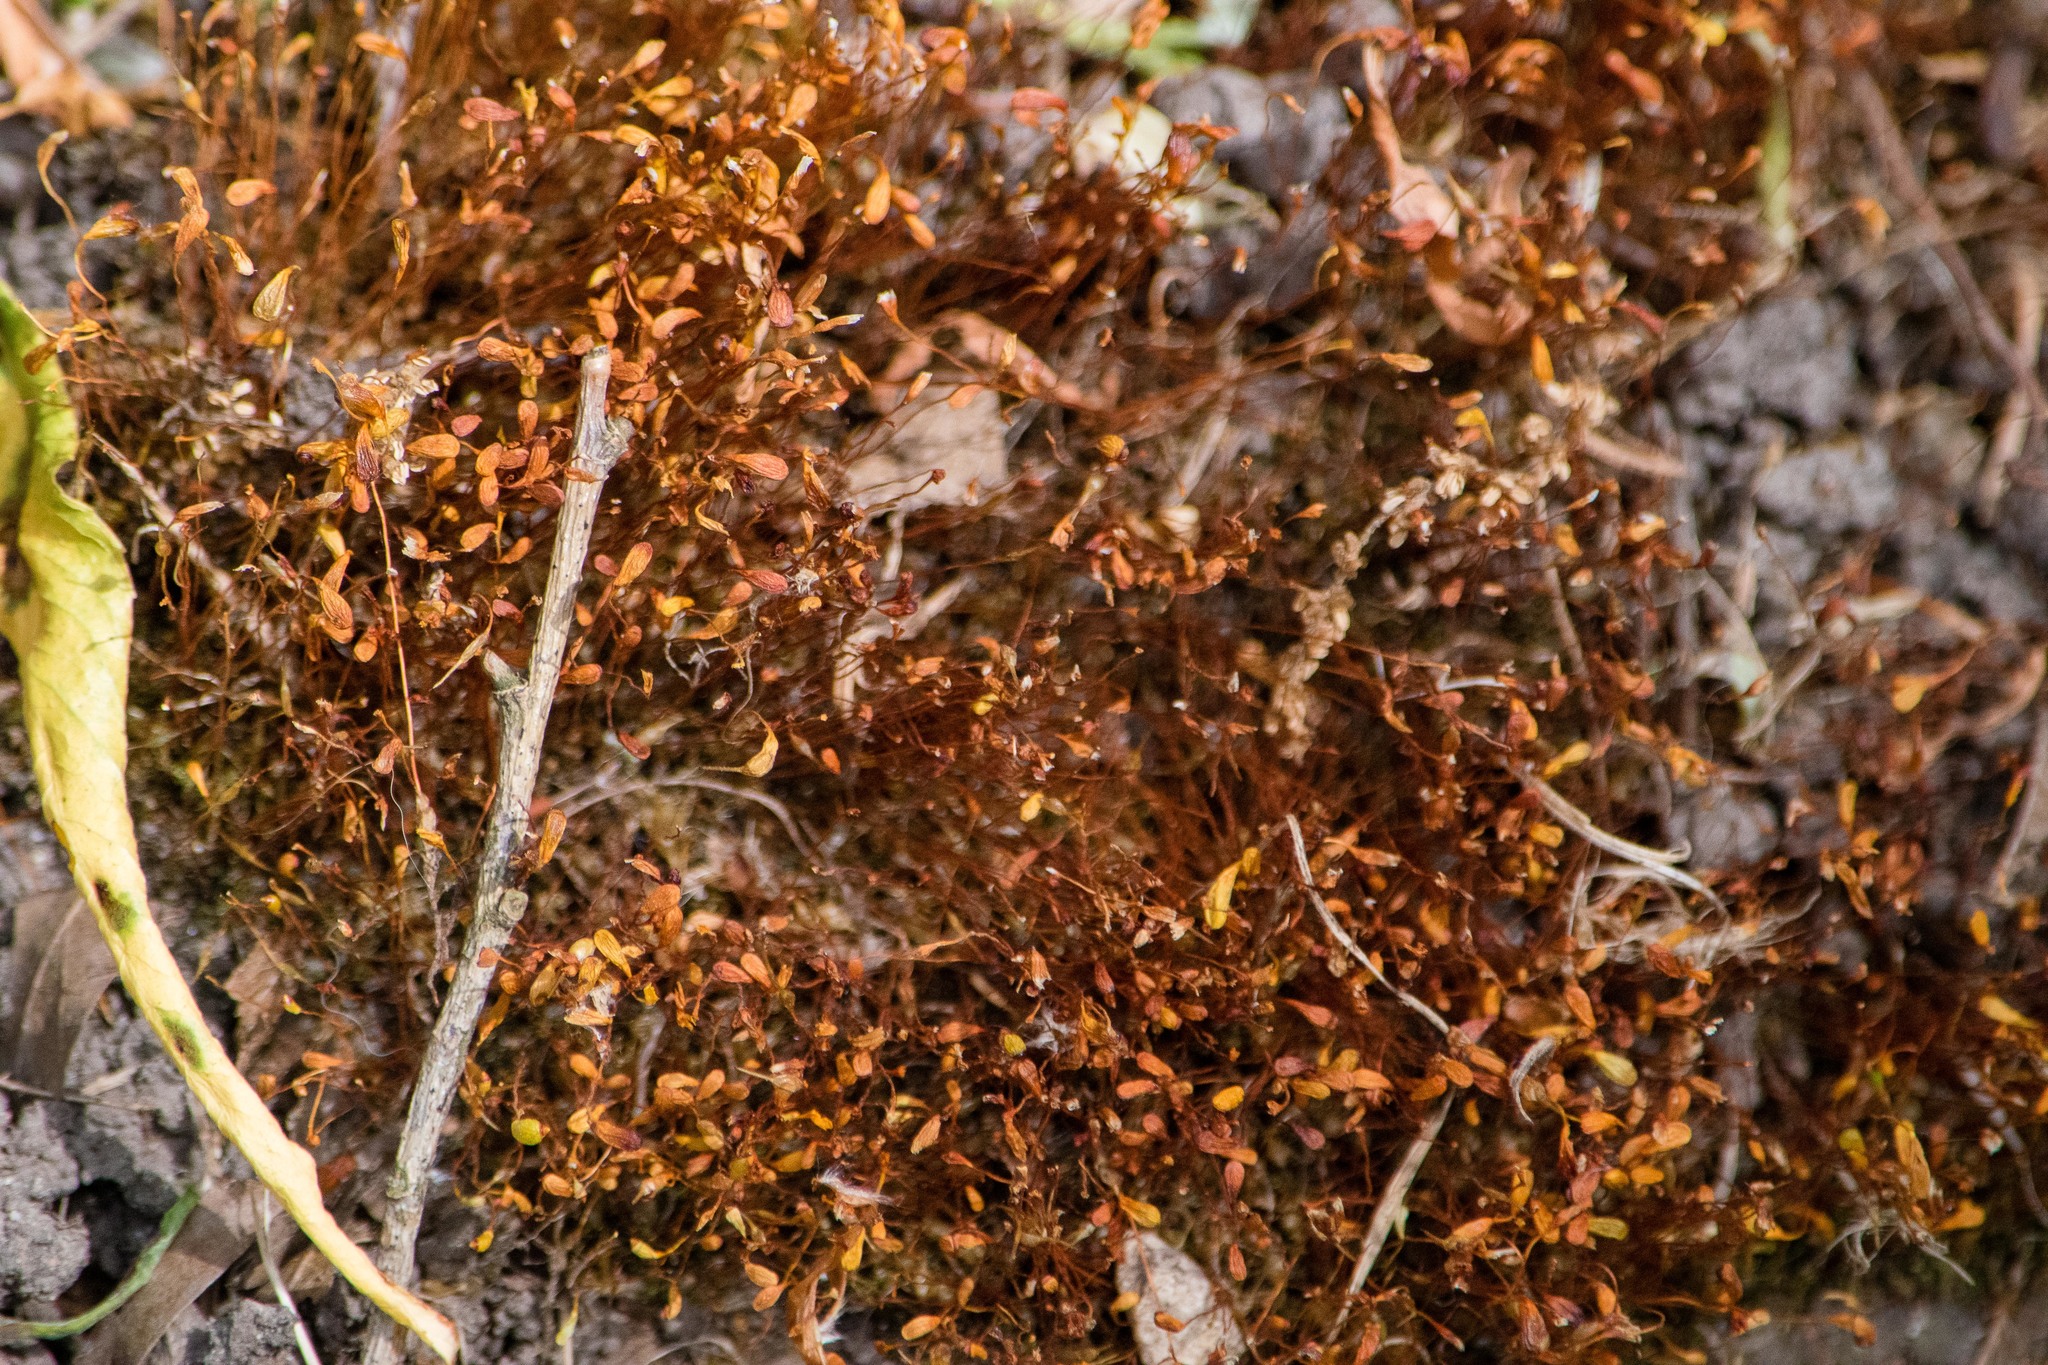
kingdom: Plantae
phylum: Bryophyta
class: Bryopsida
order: Funariales
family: Funariaceae
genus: Funaria
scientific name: Funaria hygrometrica
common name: Common cord moss
